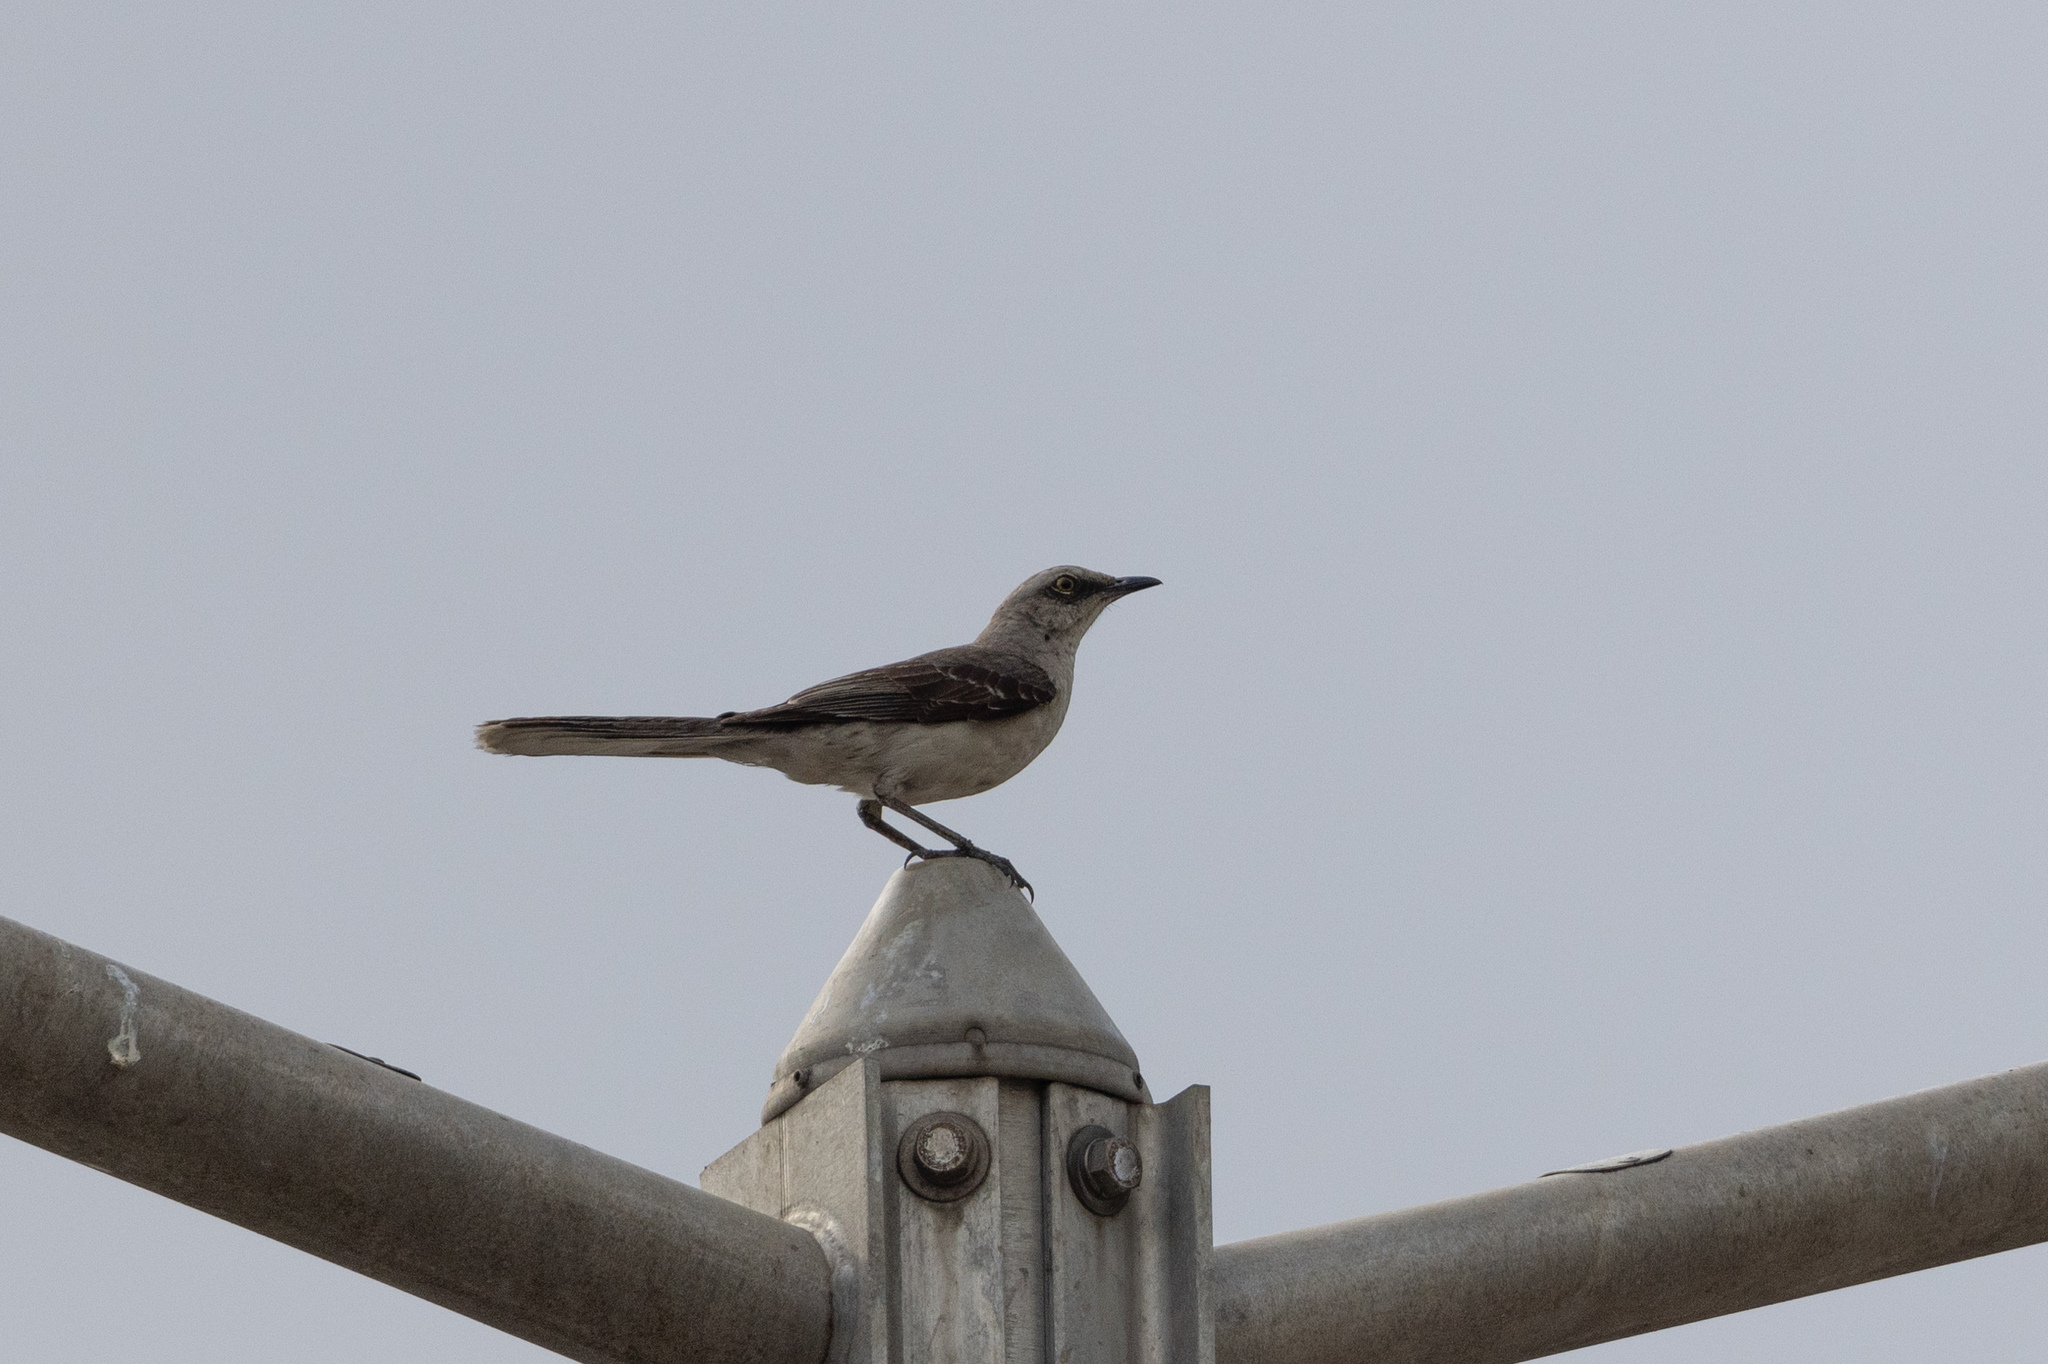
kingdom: Animalia
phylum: Chordata
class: Aves
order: Passeriformes
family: Mimidae
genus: Mimus
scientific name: Mimus gilvus
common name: Tropical mockingbird
